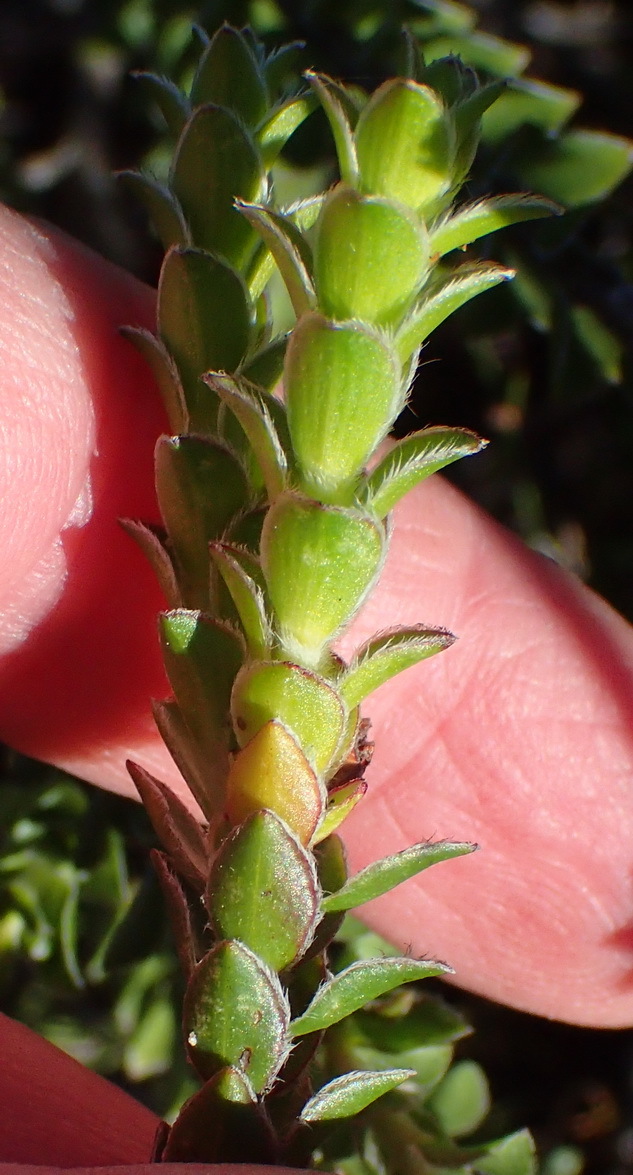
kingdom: Plantae
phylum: Tracheophyta
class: Magnoliopsida
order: Malvales
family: Thymelaeaceae
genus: Struthiola
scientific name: Struthiola argentea
